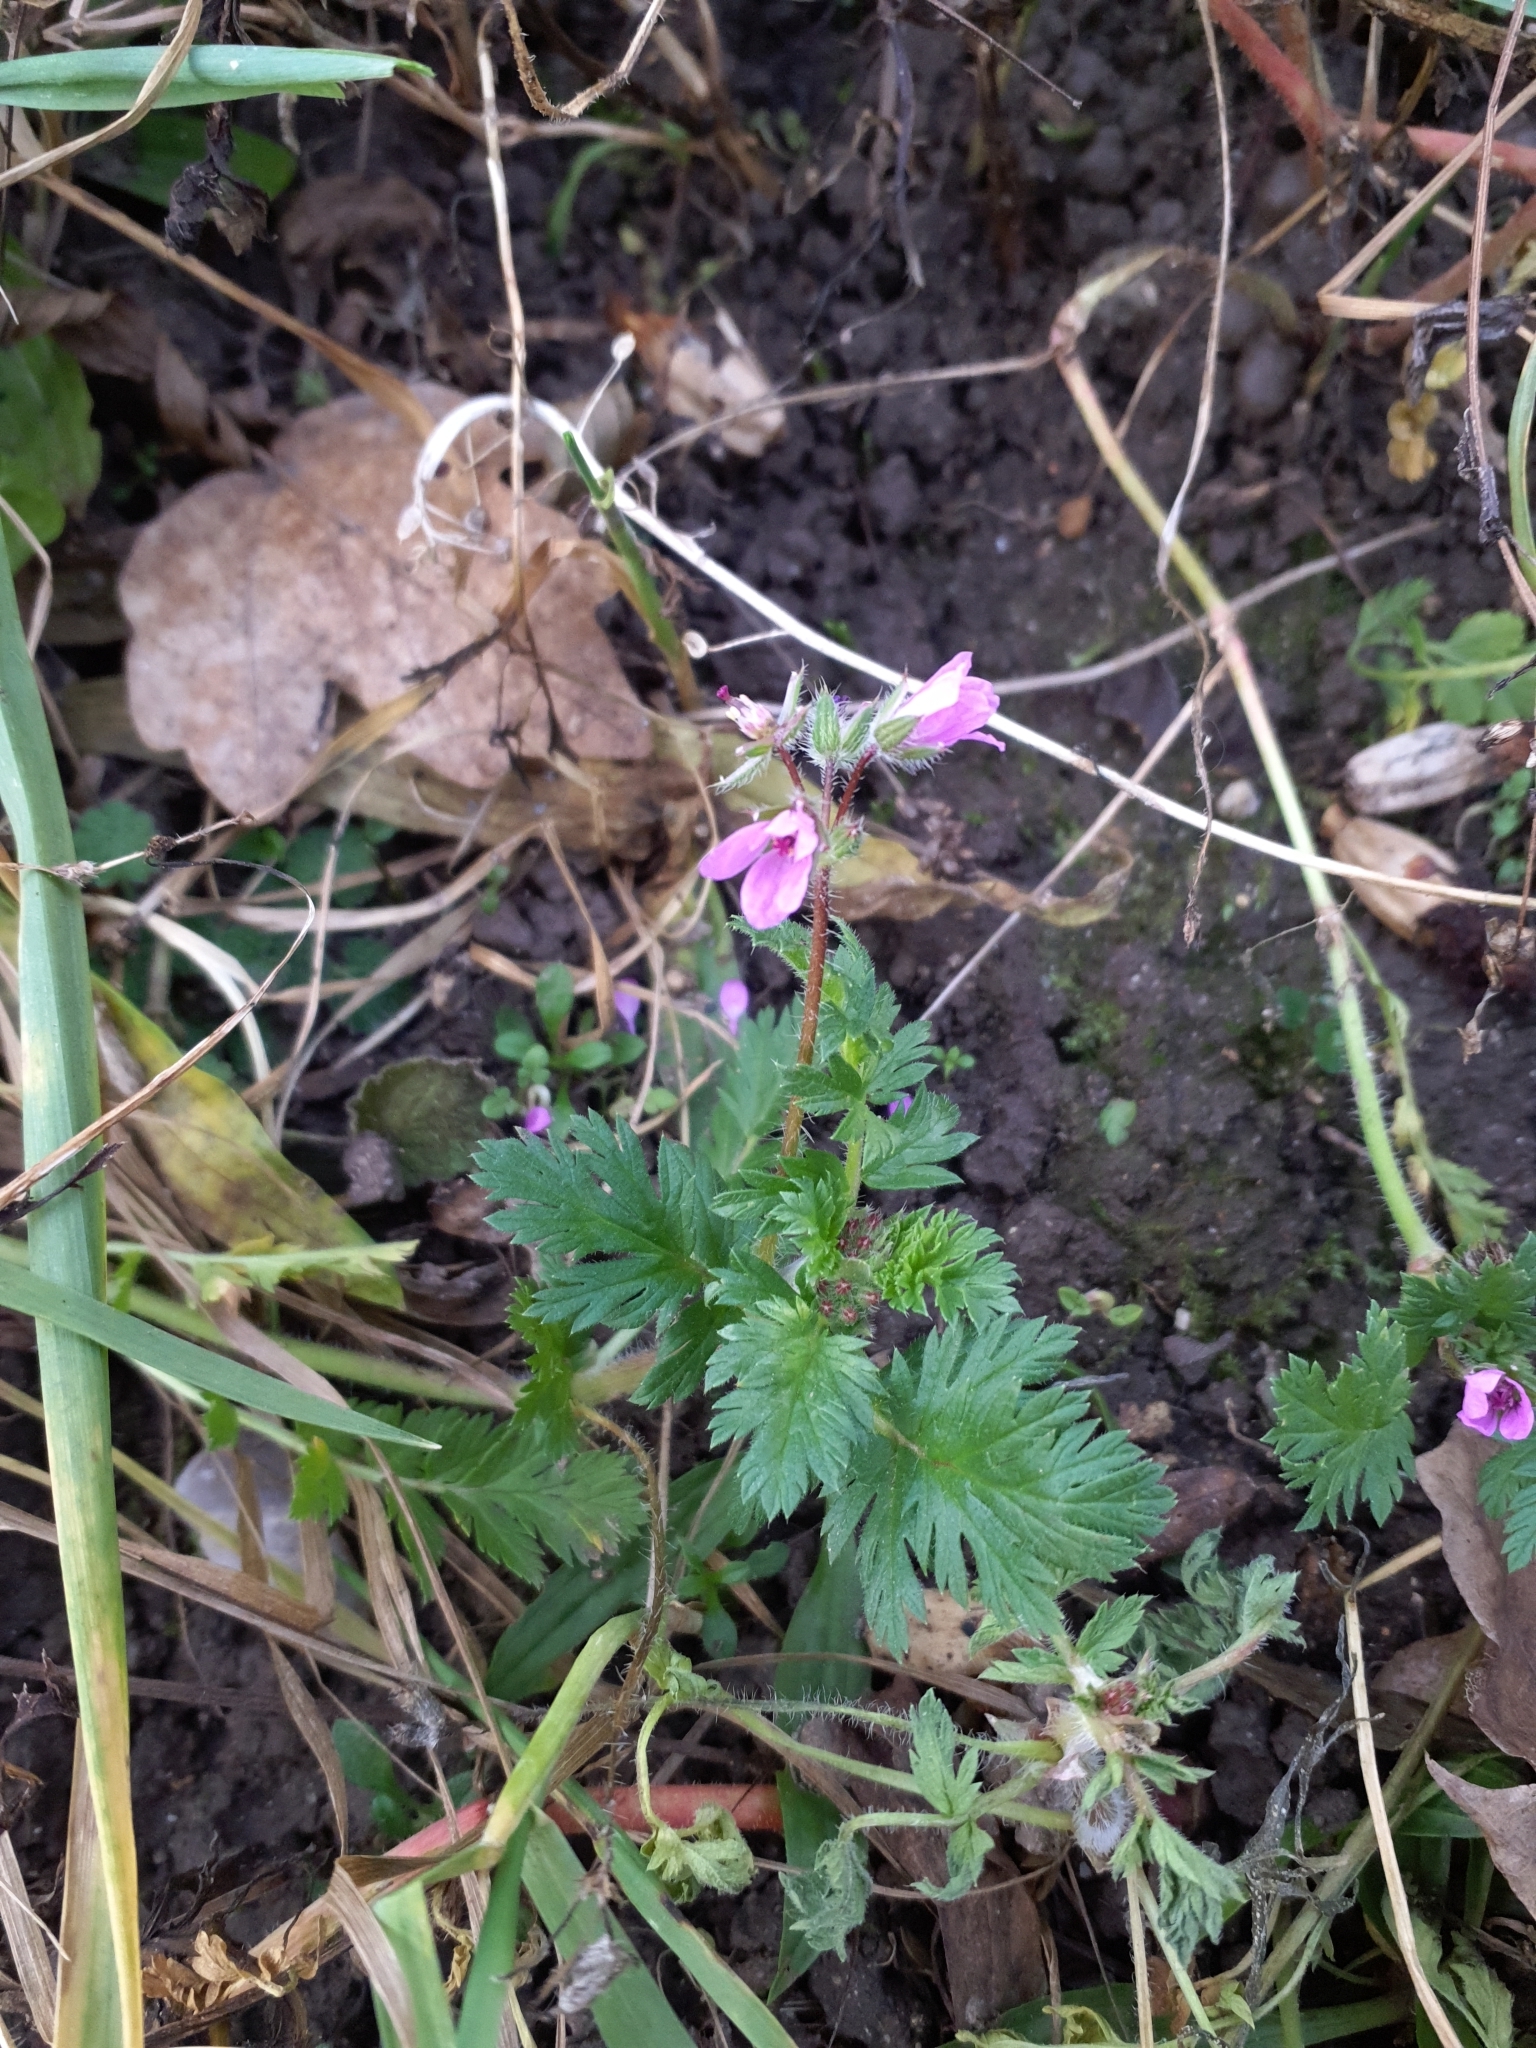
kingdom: Plantae
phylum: Tracheophyta
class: Magnoliopsida
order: Geraniales
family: Geraniaceae
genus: Erodium
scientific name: Erodium cicutarium
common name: Common stork's-bill
